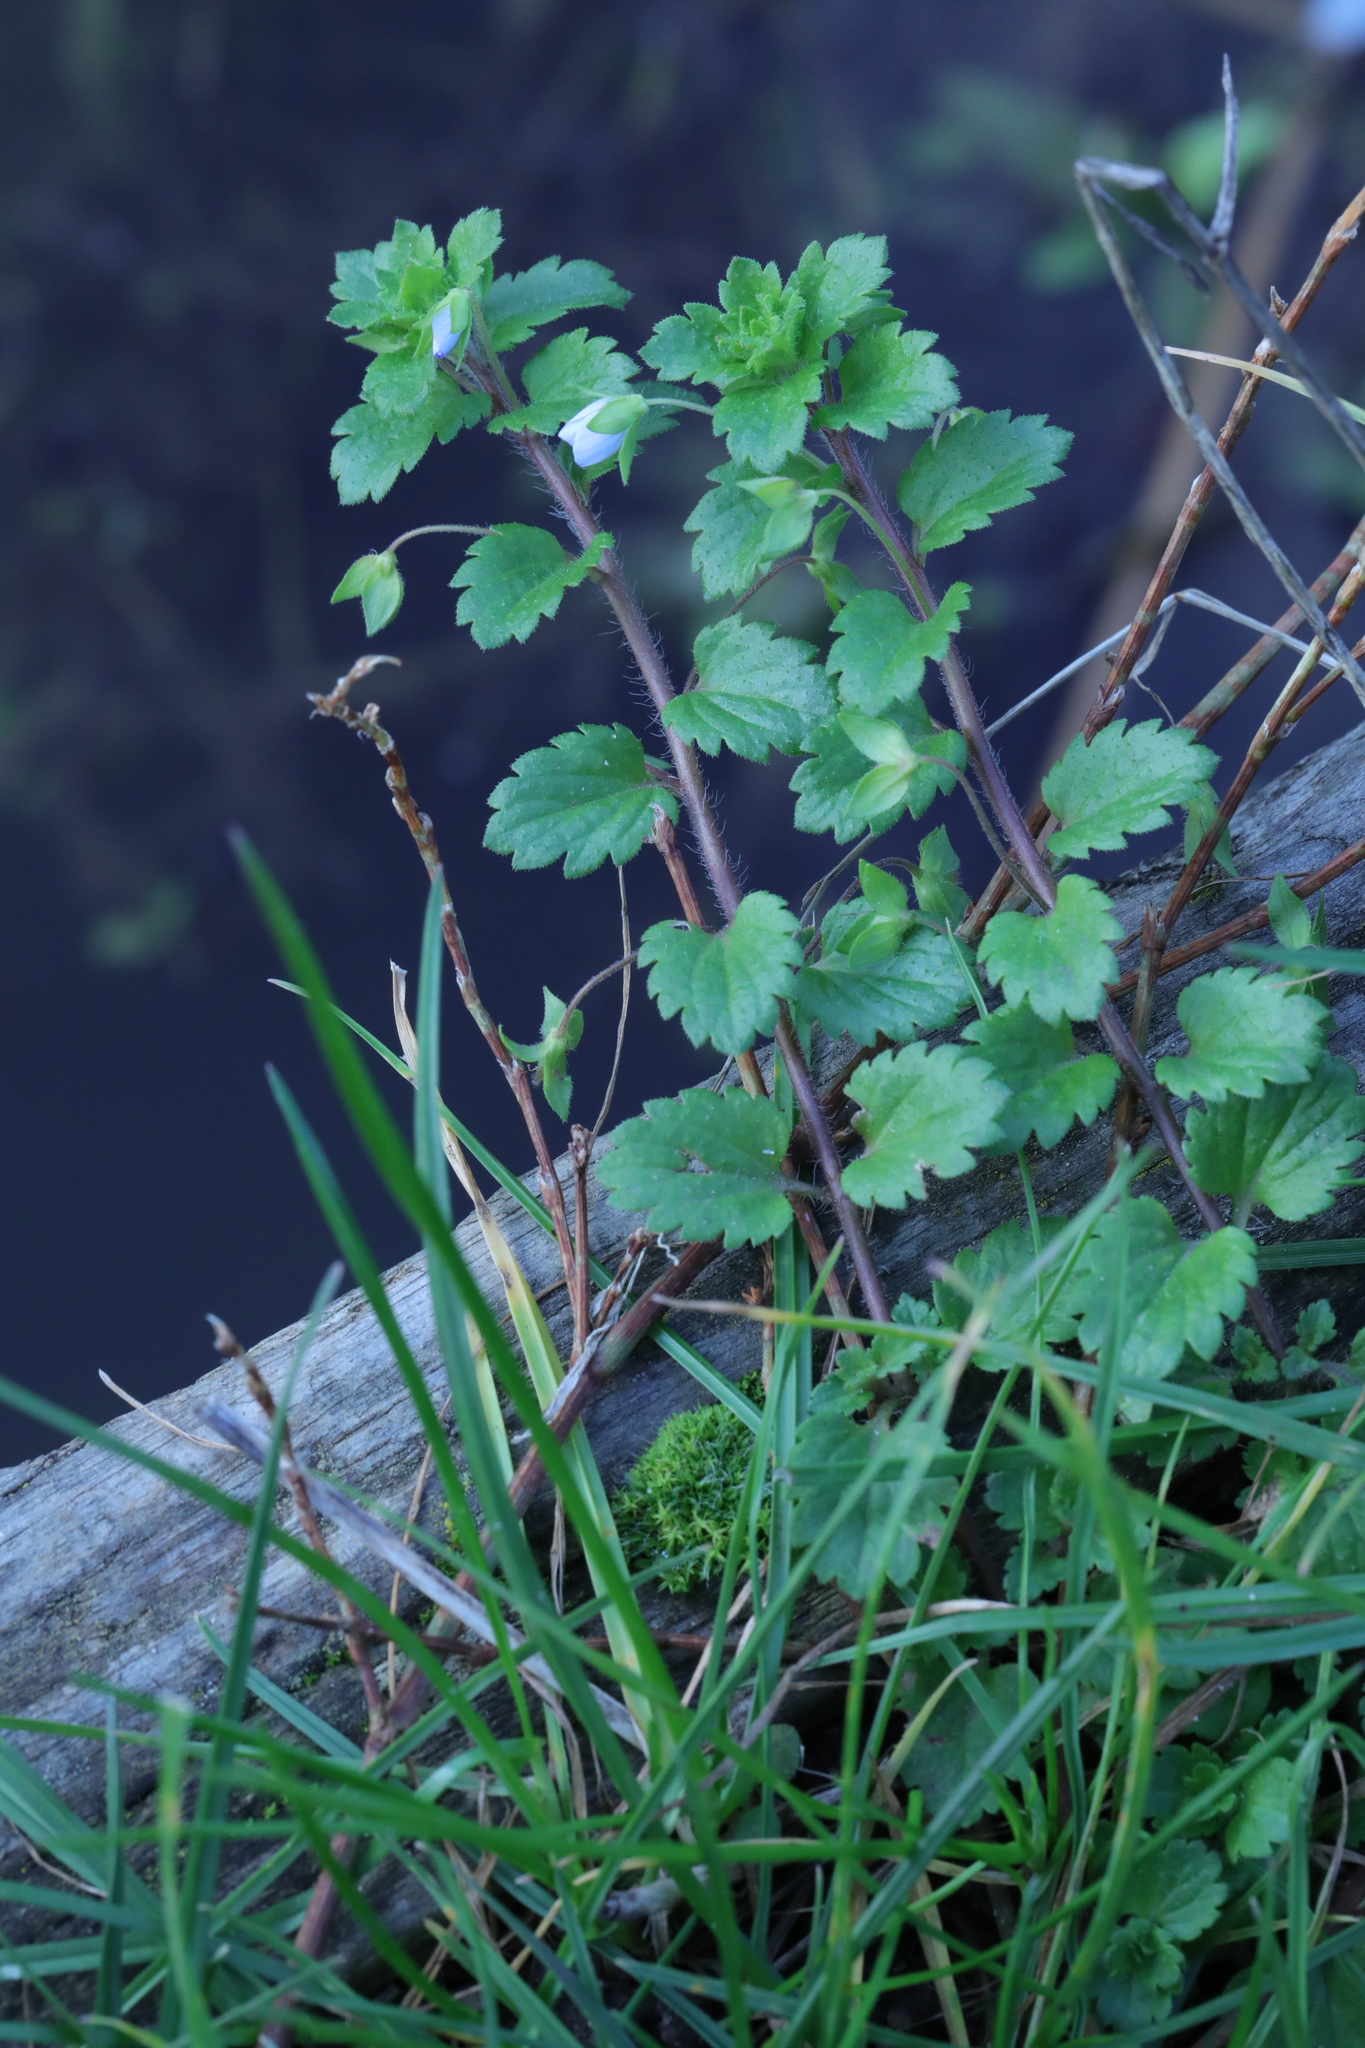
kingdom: Plantae
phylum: Tracheophyta
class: Magnoliopsida
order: Lamiales
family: Plantaginaceae
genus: Veronica
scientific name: Veronica persica
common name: Common field-speedwell
